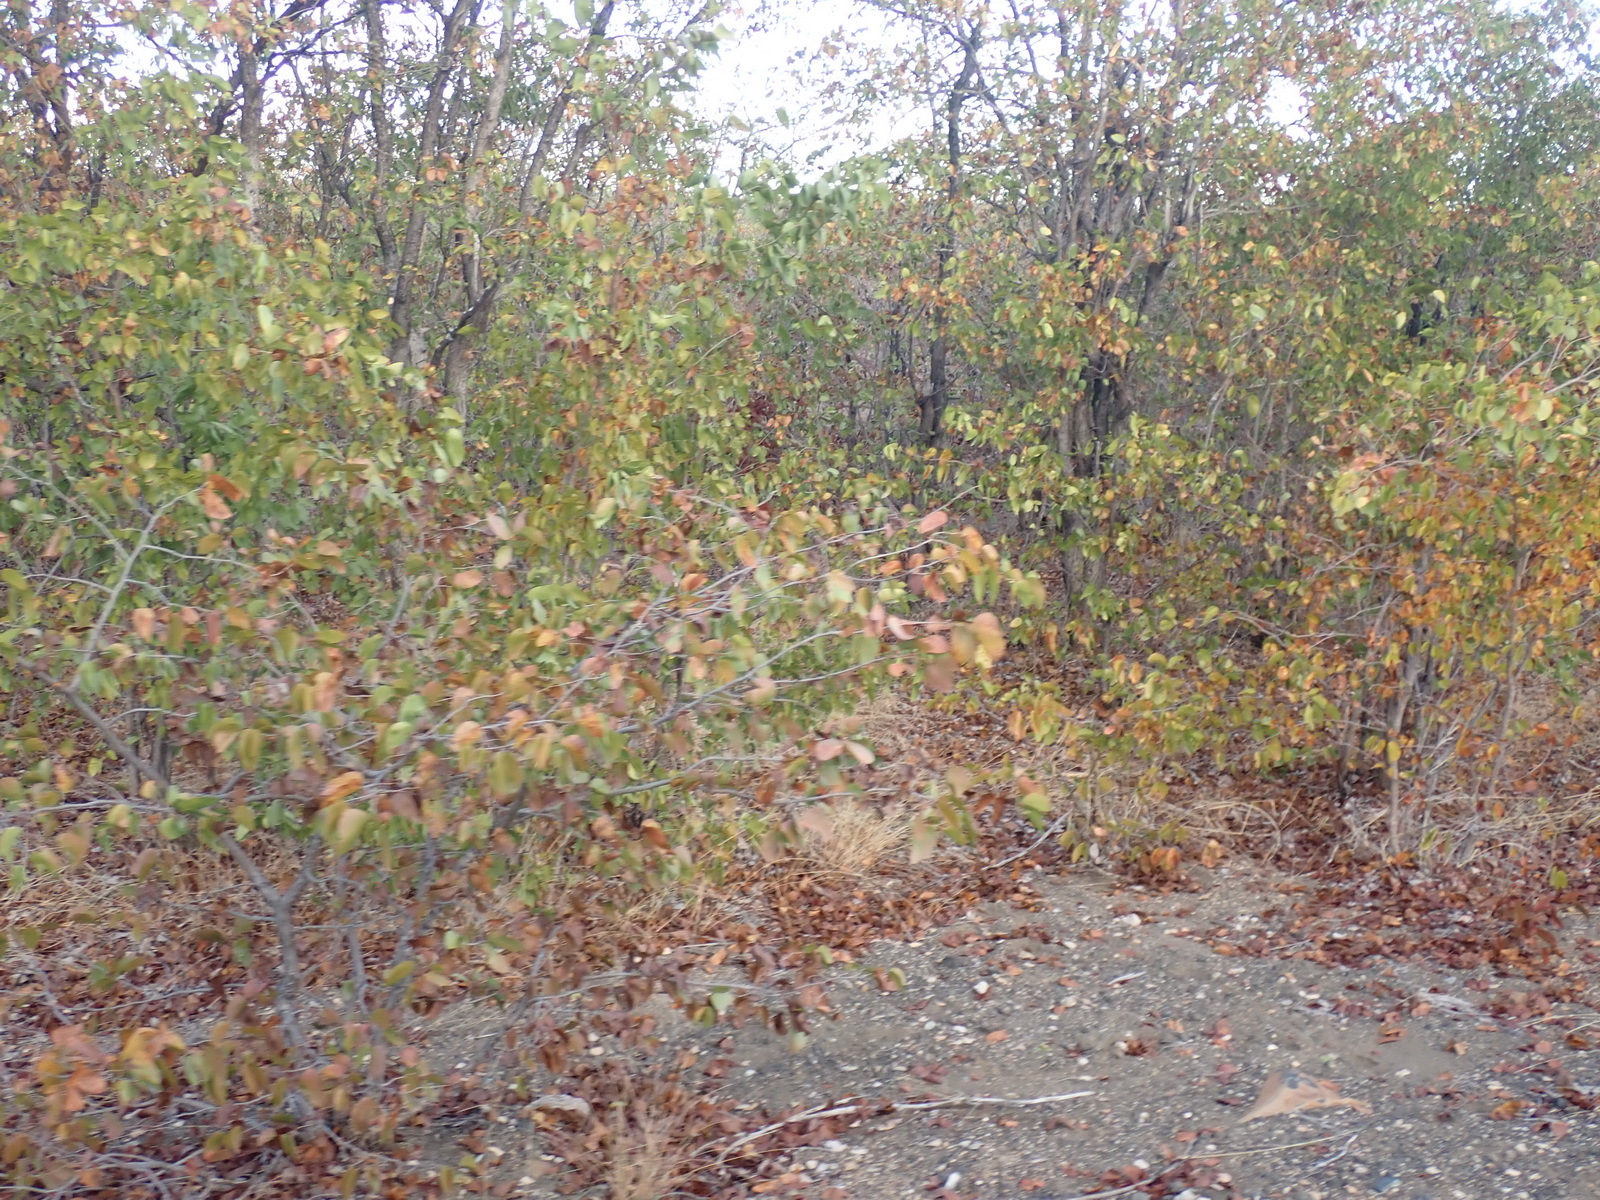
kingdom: Plantae
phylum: Tracheophyta
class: Magnoliopsida
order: Fabales
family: Fabaceae
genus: Colophospermum
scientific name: Colophospermum mopane
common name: Mopane
